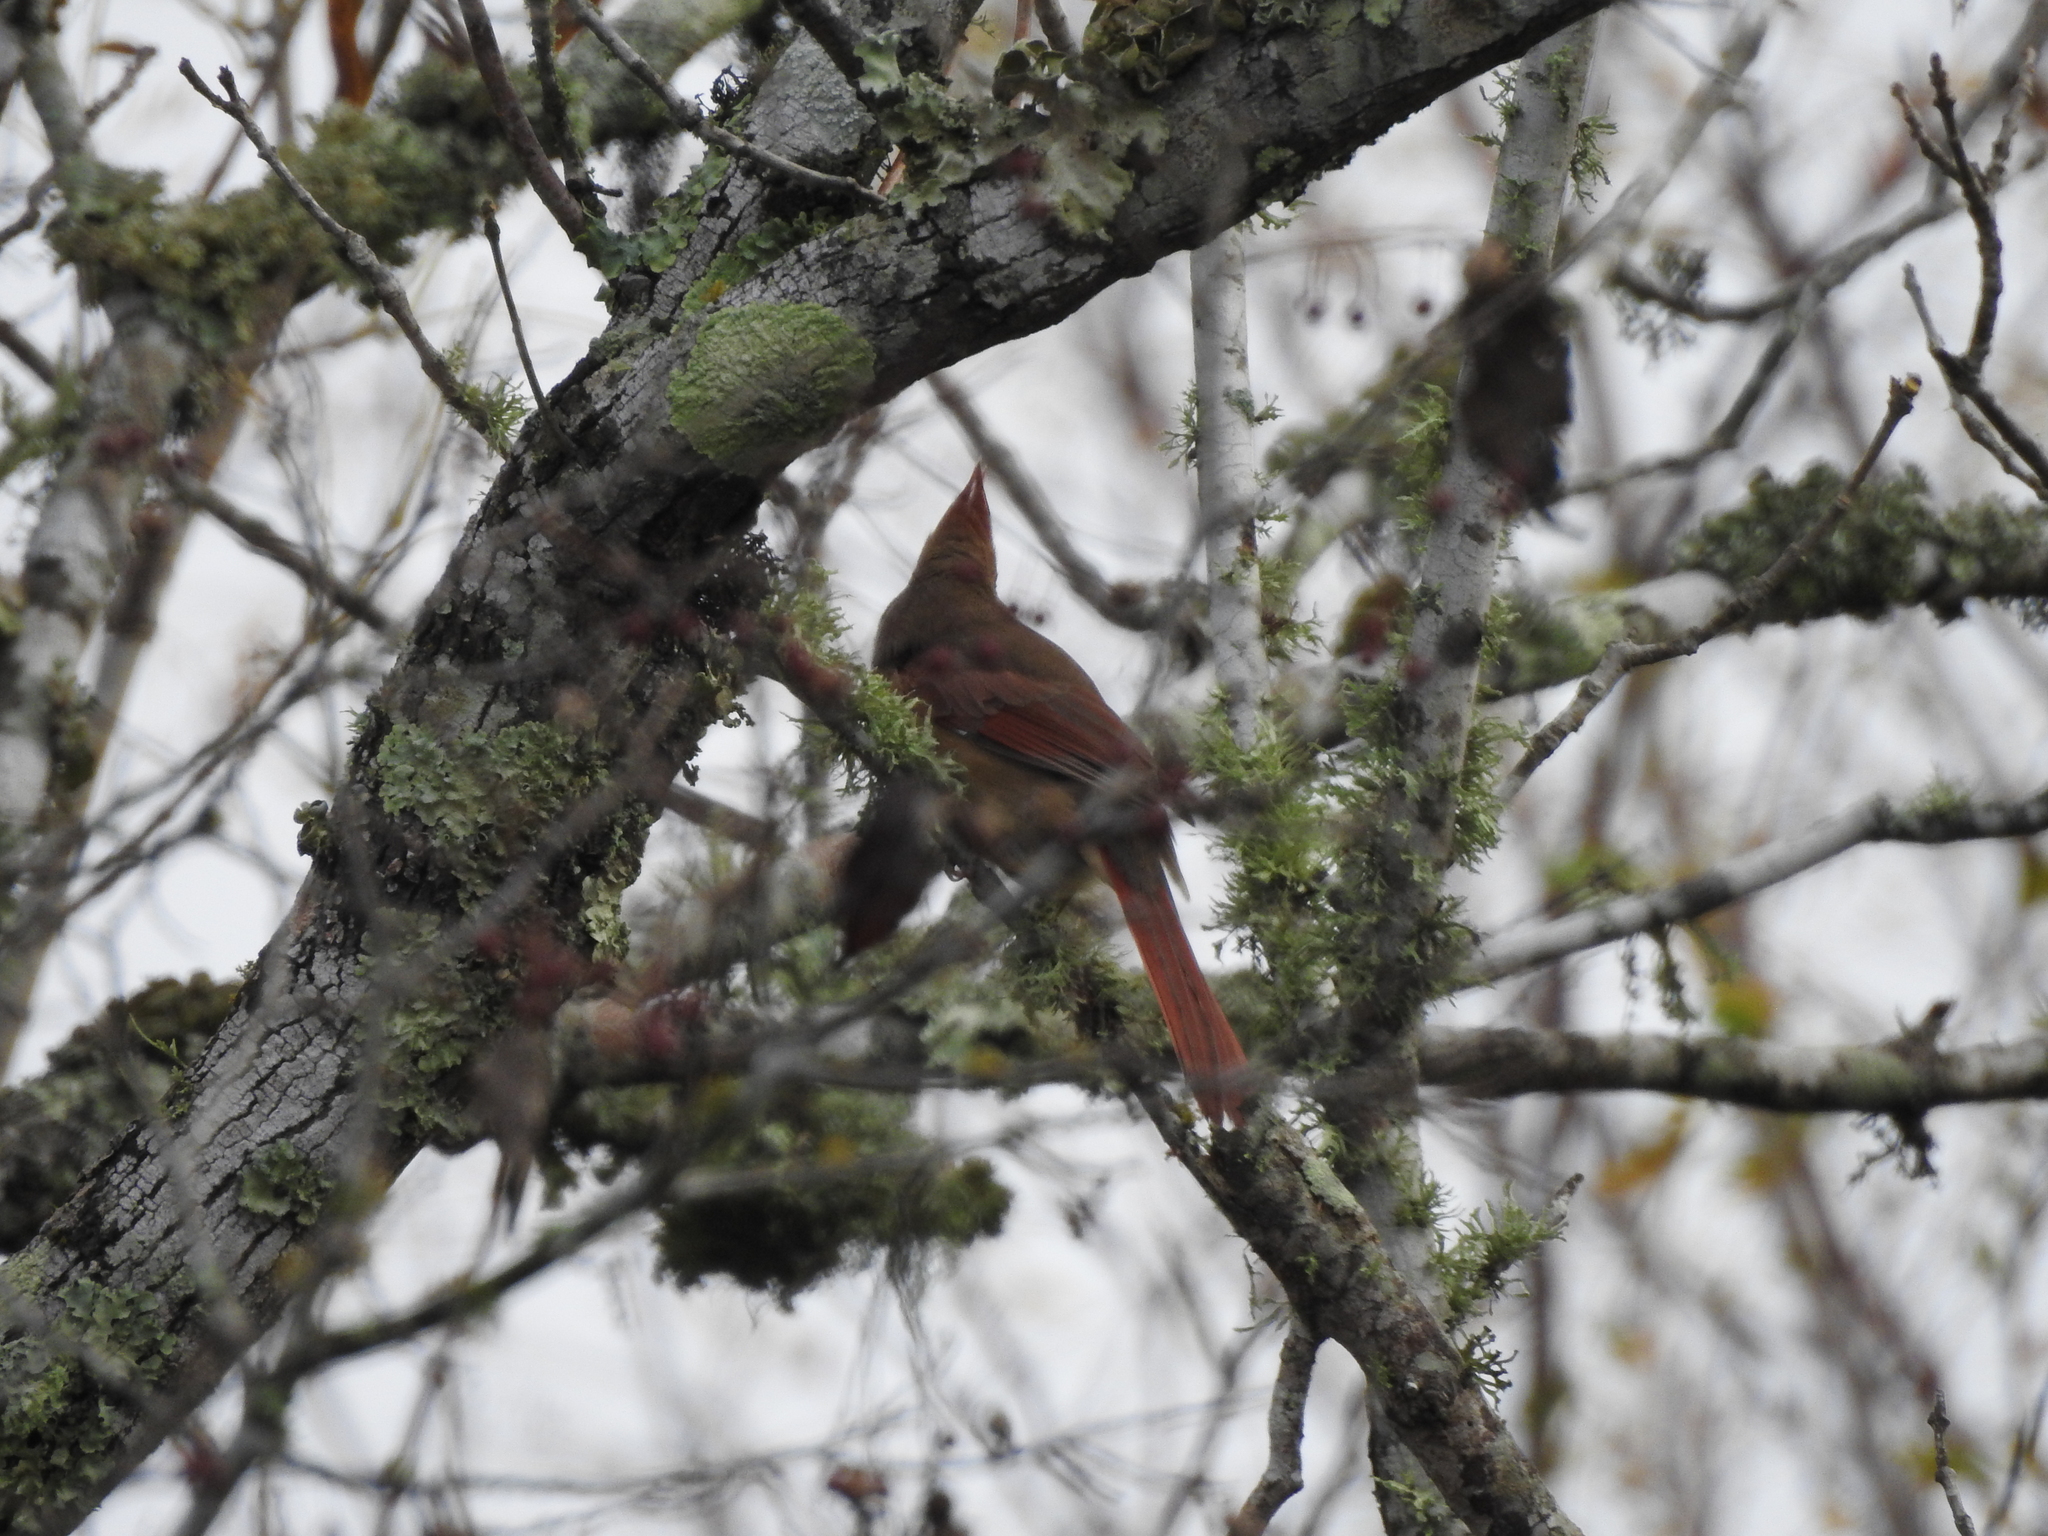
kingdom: Animalia
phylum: Chordata
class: Aves
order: Passeriformes
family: Cardinalidae
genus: Cardinalis
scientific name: Cardinalis cardinalis
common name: Northern cardinal
